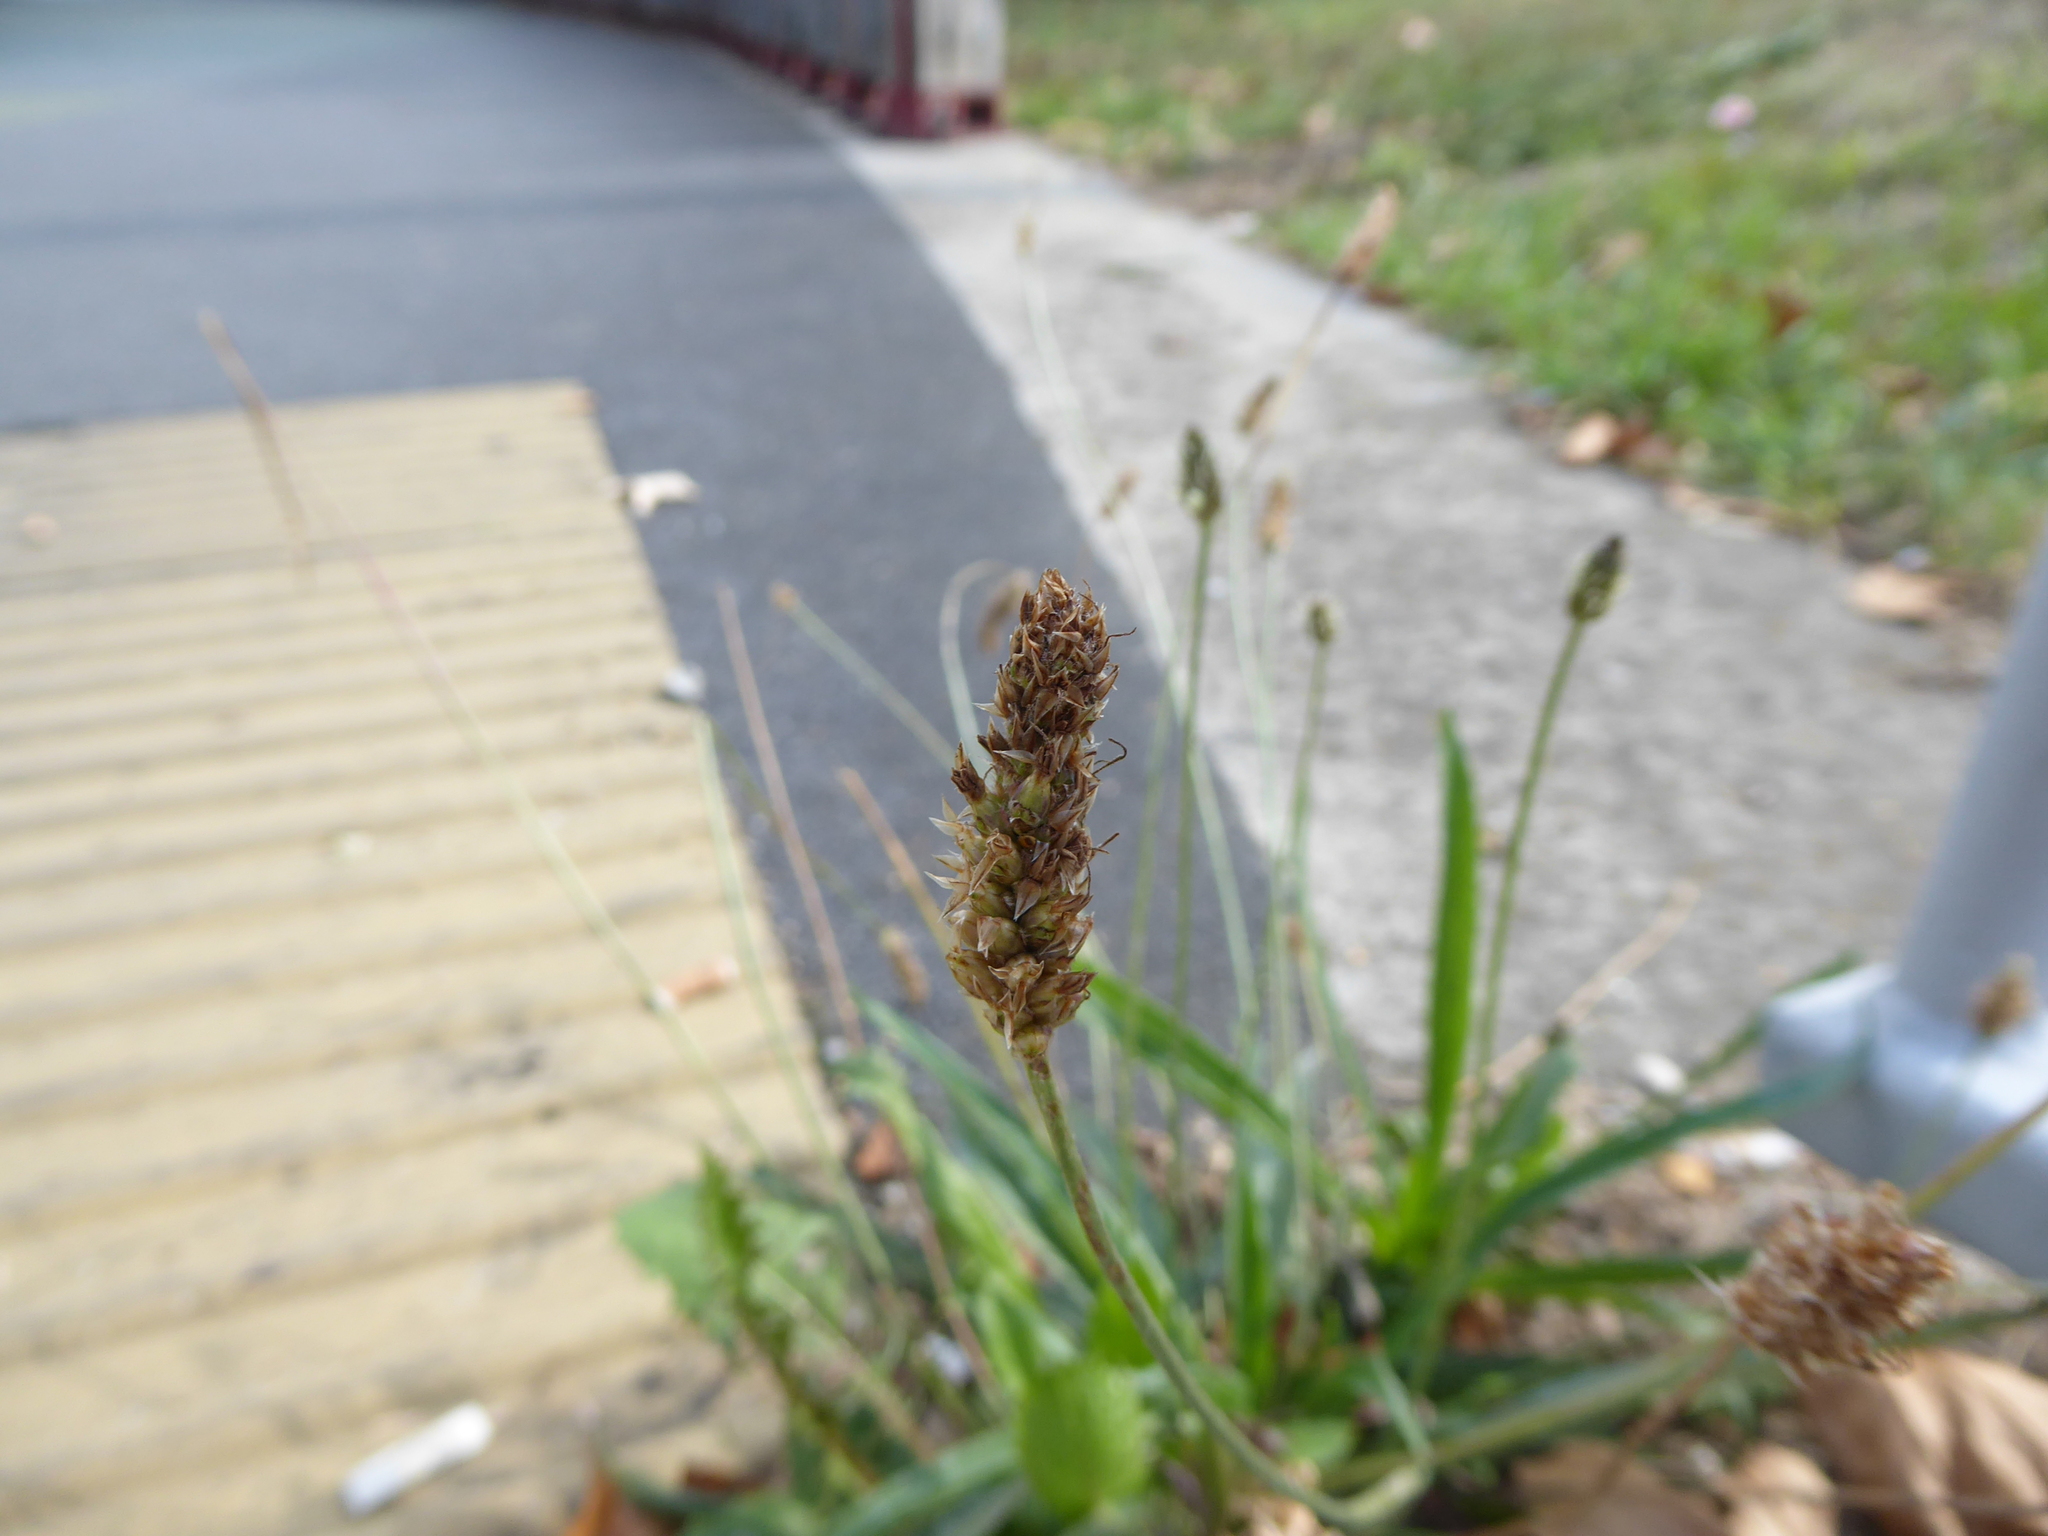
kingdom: Plantae
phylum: Tracheophyta
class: Magnoliopsida
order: Lamiales
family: Plantaginaceae
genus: Plantago
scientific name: Plantago lanceolata
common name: Ribwort plantain
